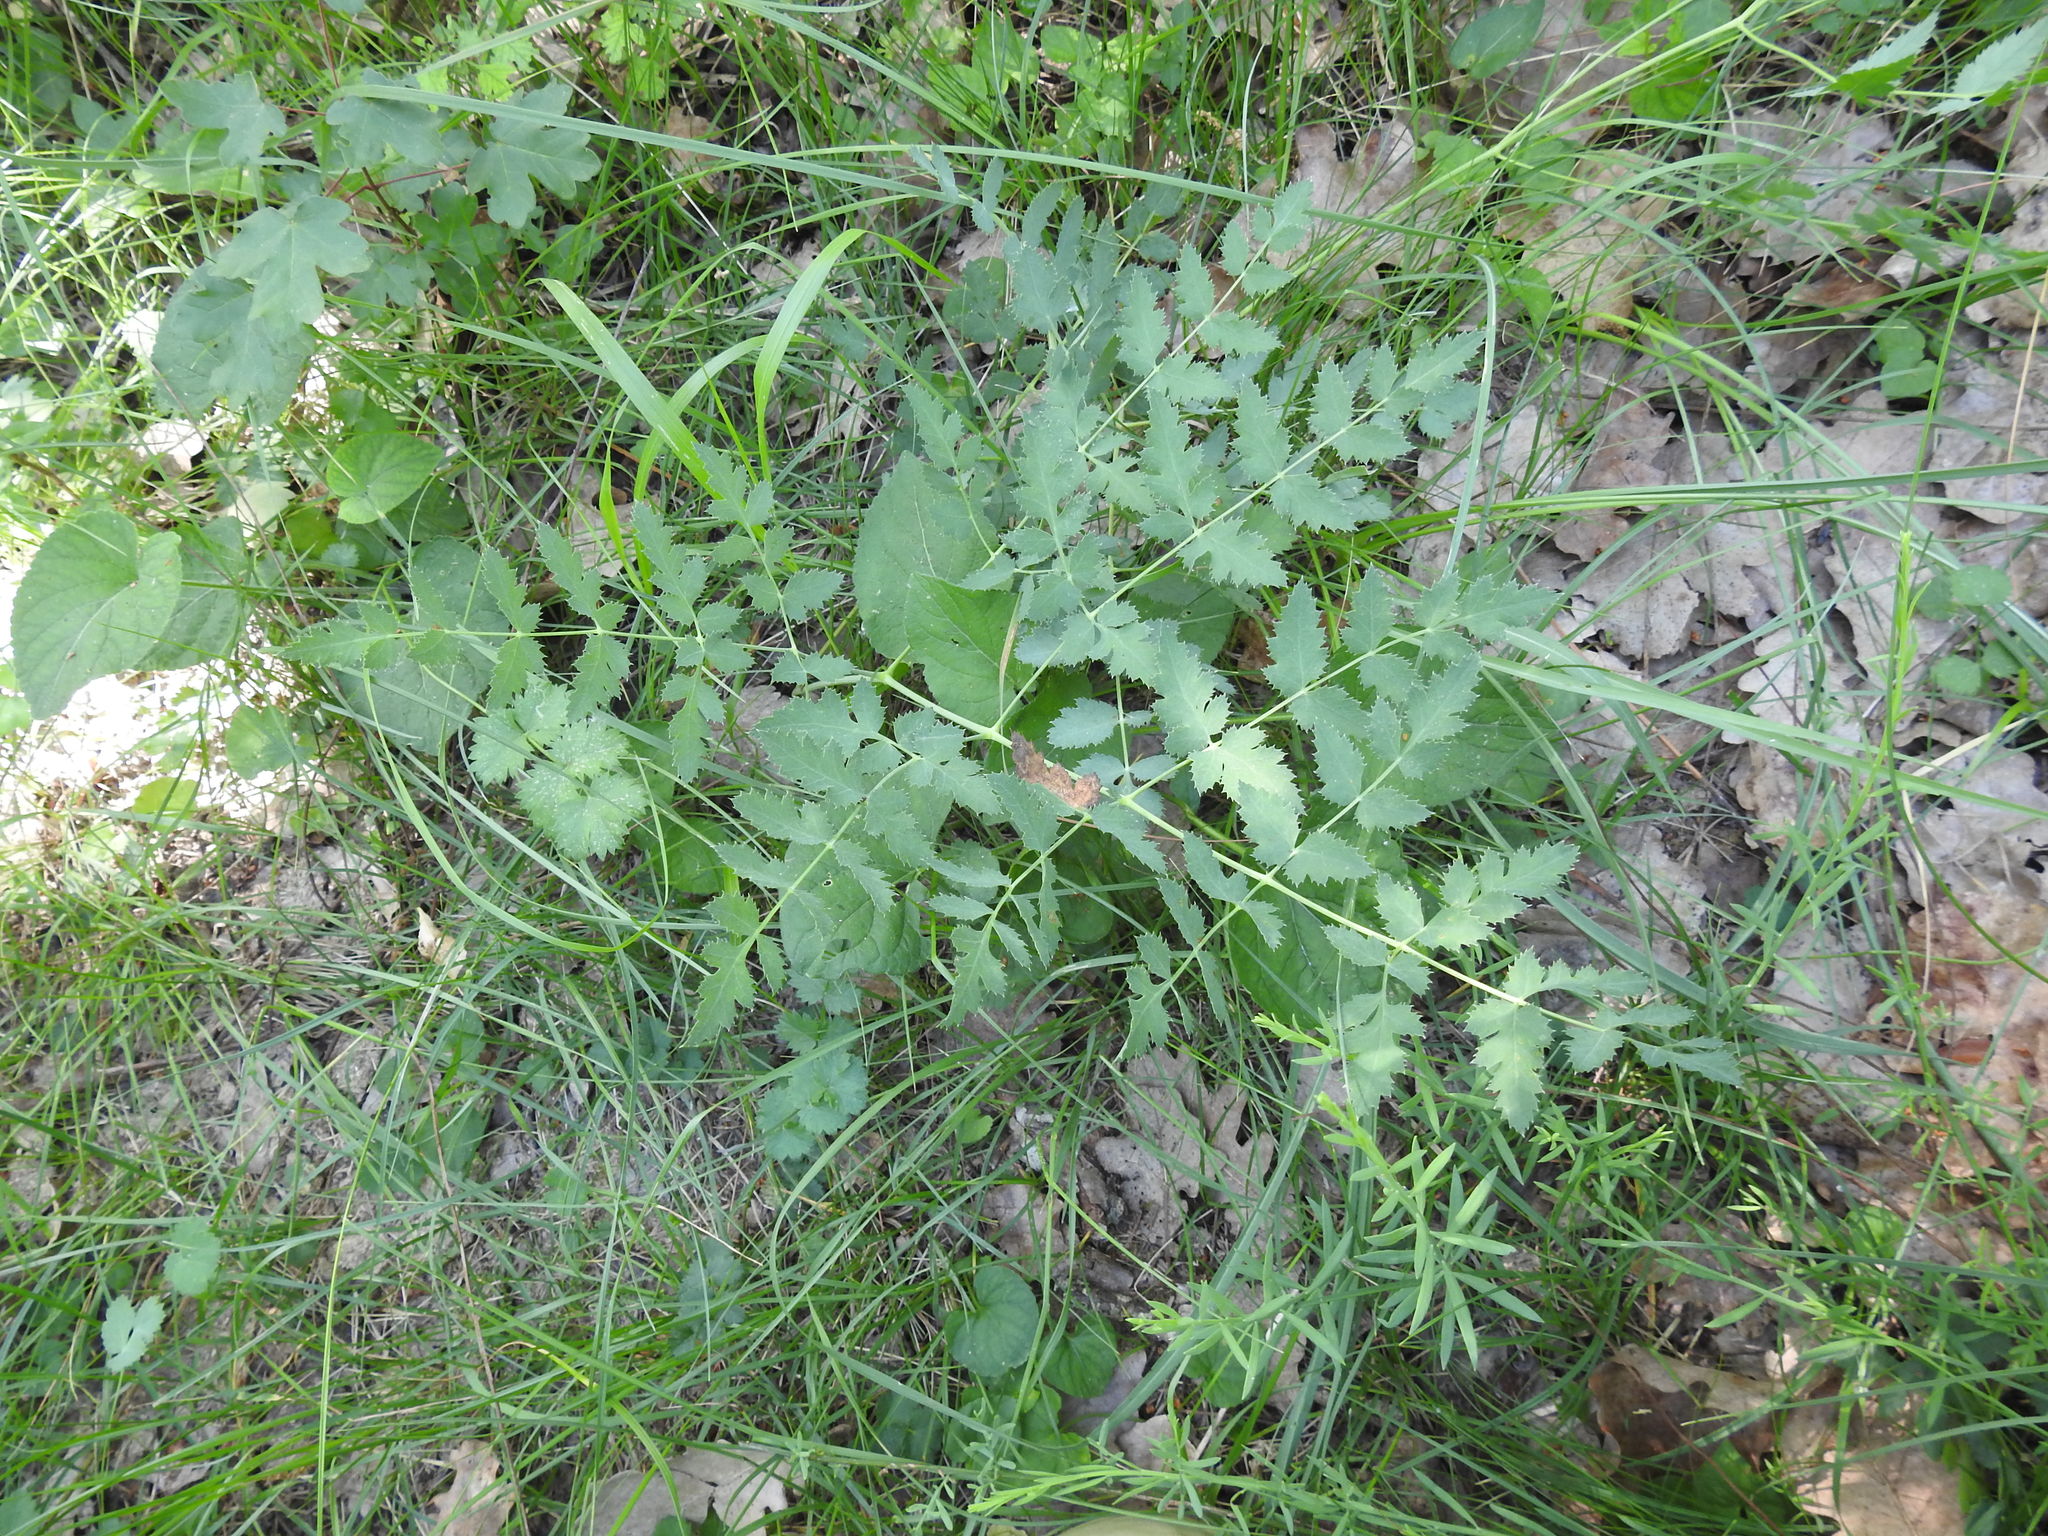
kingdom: Plantae
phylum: Tracheophyta
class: Magnoliopsida
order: Apiales
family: Apiaceae
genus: Cervaria
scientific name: Cervaria rivini
